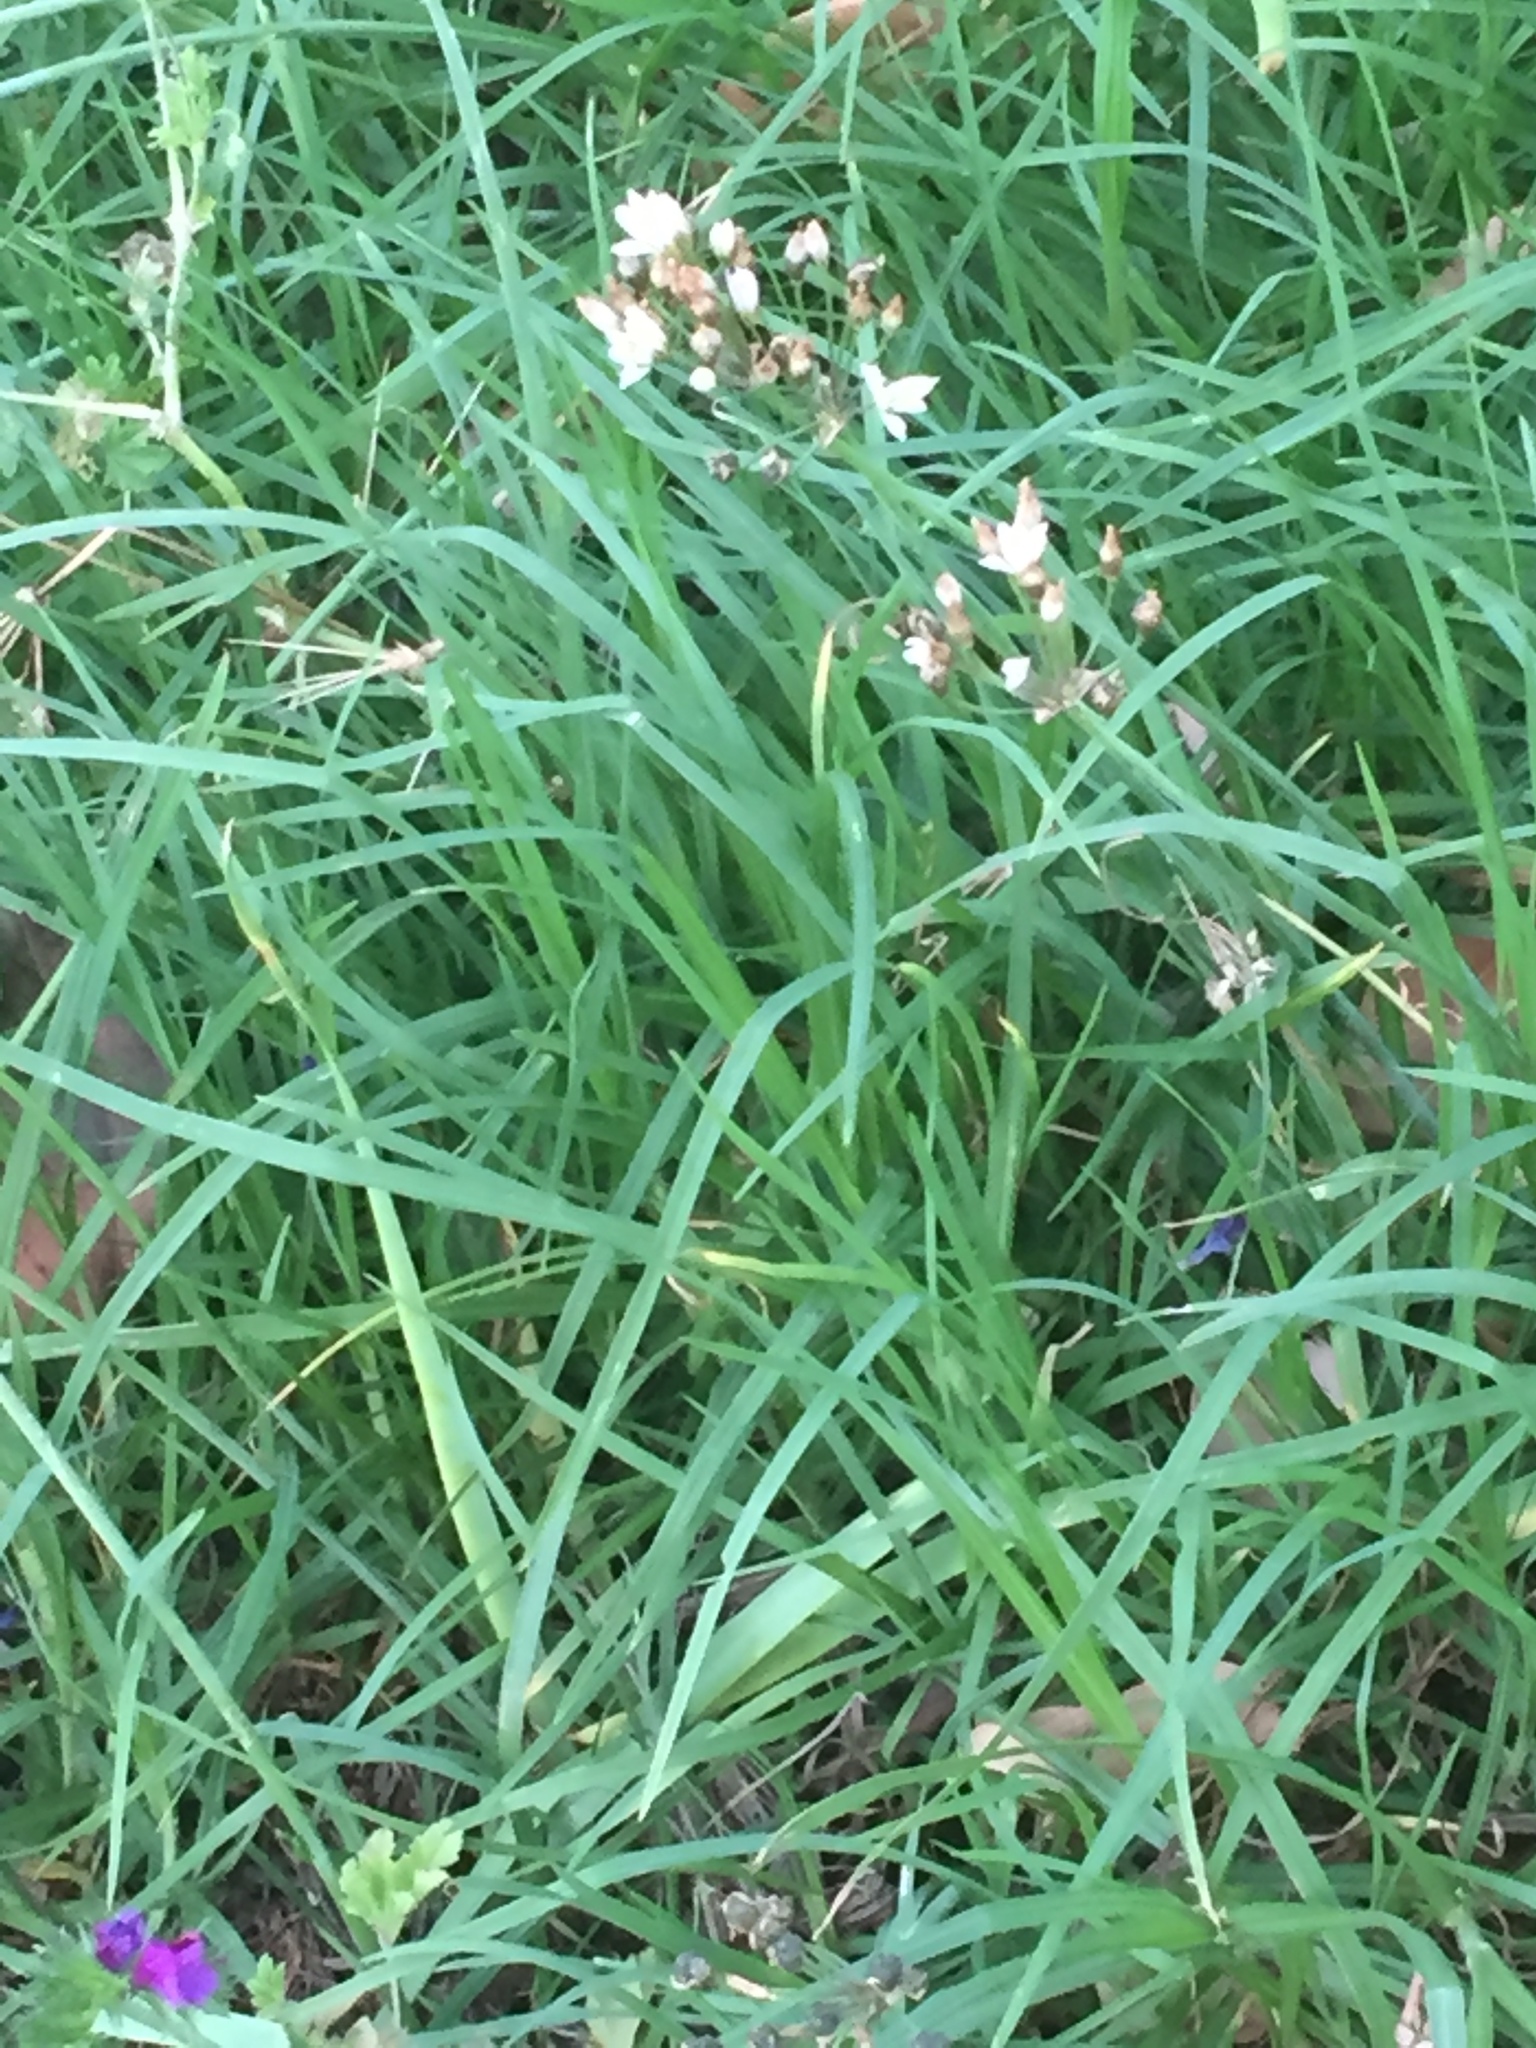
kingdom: Plantae
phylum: Tracheophyta
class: Liliopsida
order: Asparagales
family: Amaryllidaceae
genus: Nothoscordum
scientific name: Nothoscordum gracile
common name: Slender false garlic
